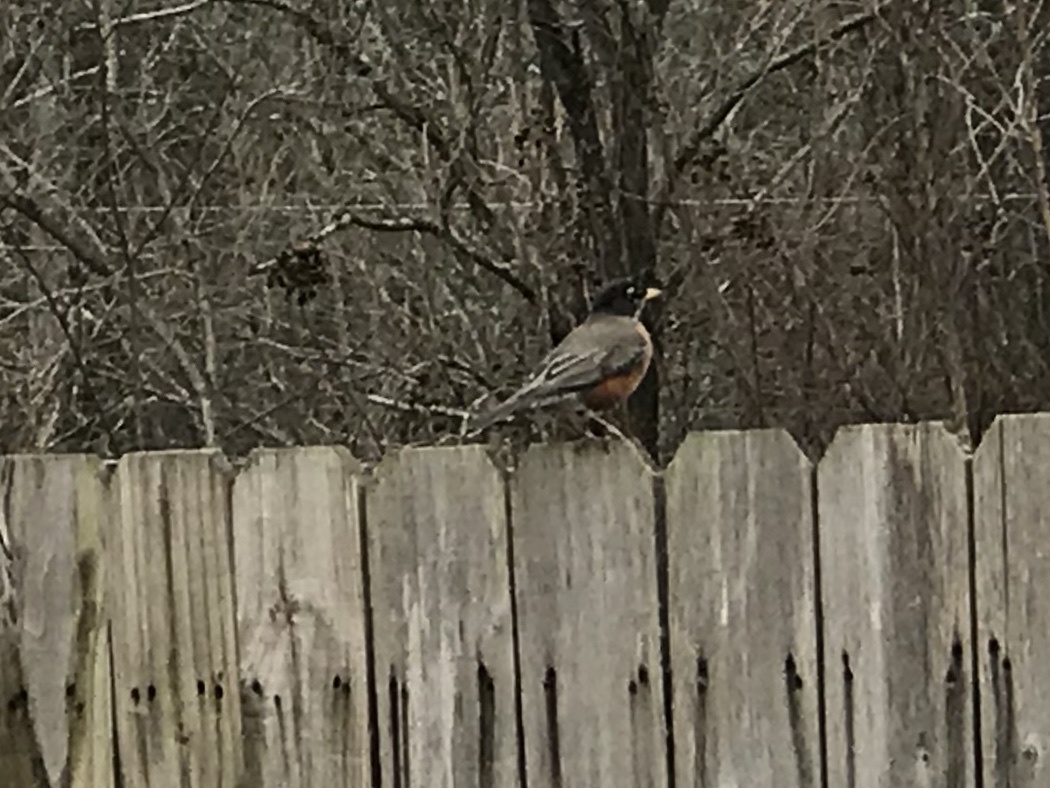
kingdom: Animalia
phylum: Chordata
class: Aves
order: Passeriformes
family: Turdidae
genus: Turdus
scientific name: Turdus migratorius
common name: American robin
